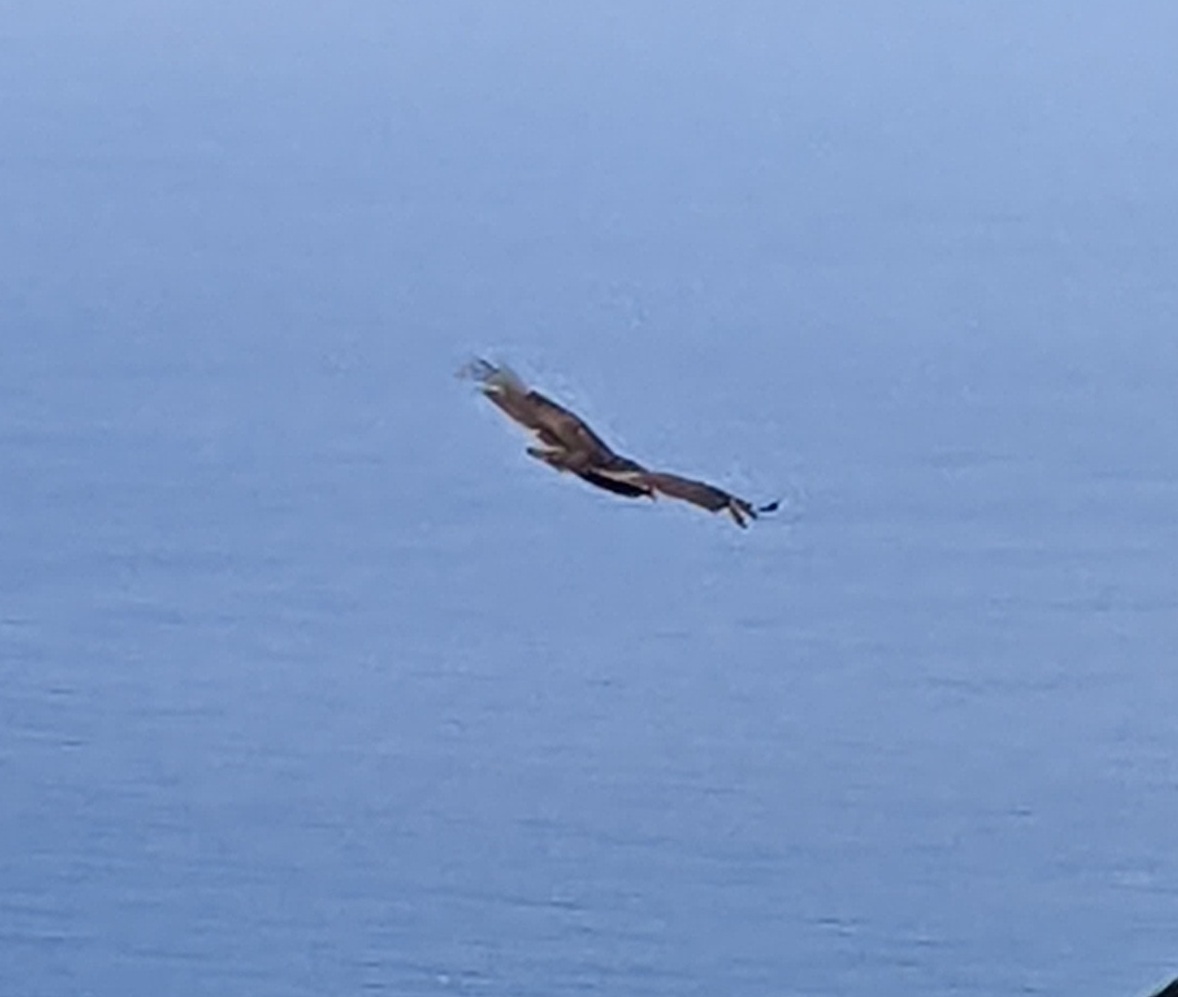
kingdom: Animalia
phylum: Chordata
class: Aves
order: Accipitriformes
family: Cathartidae
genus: Cathartes
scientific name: Cathartes aura
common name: Turkey vulture
